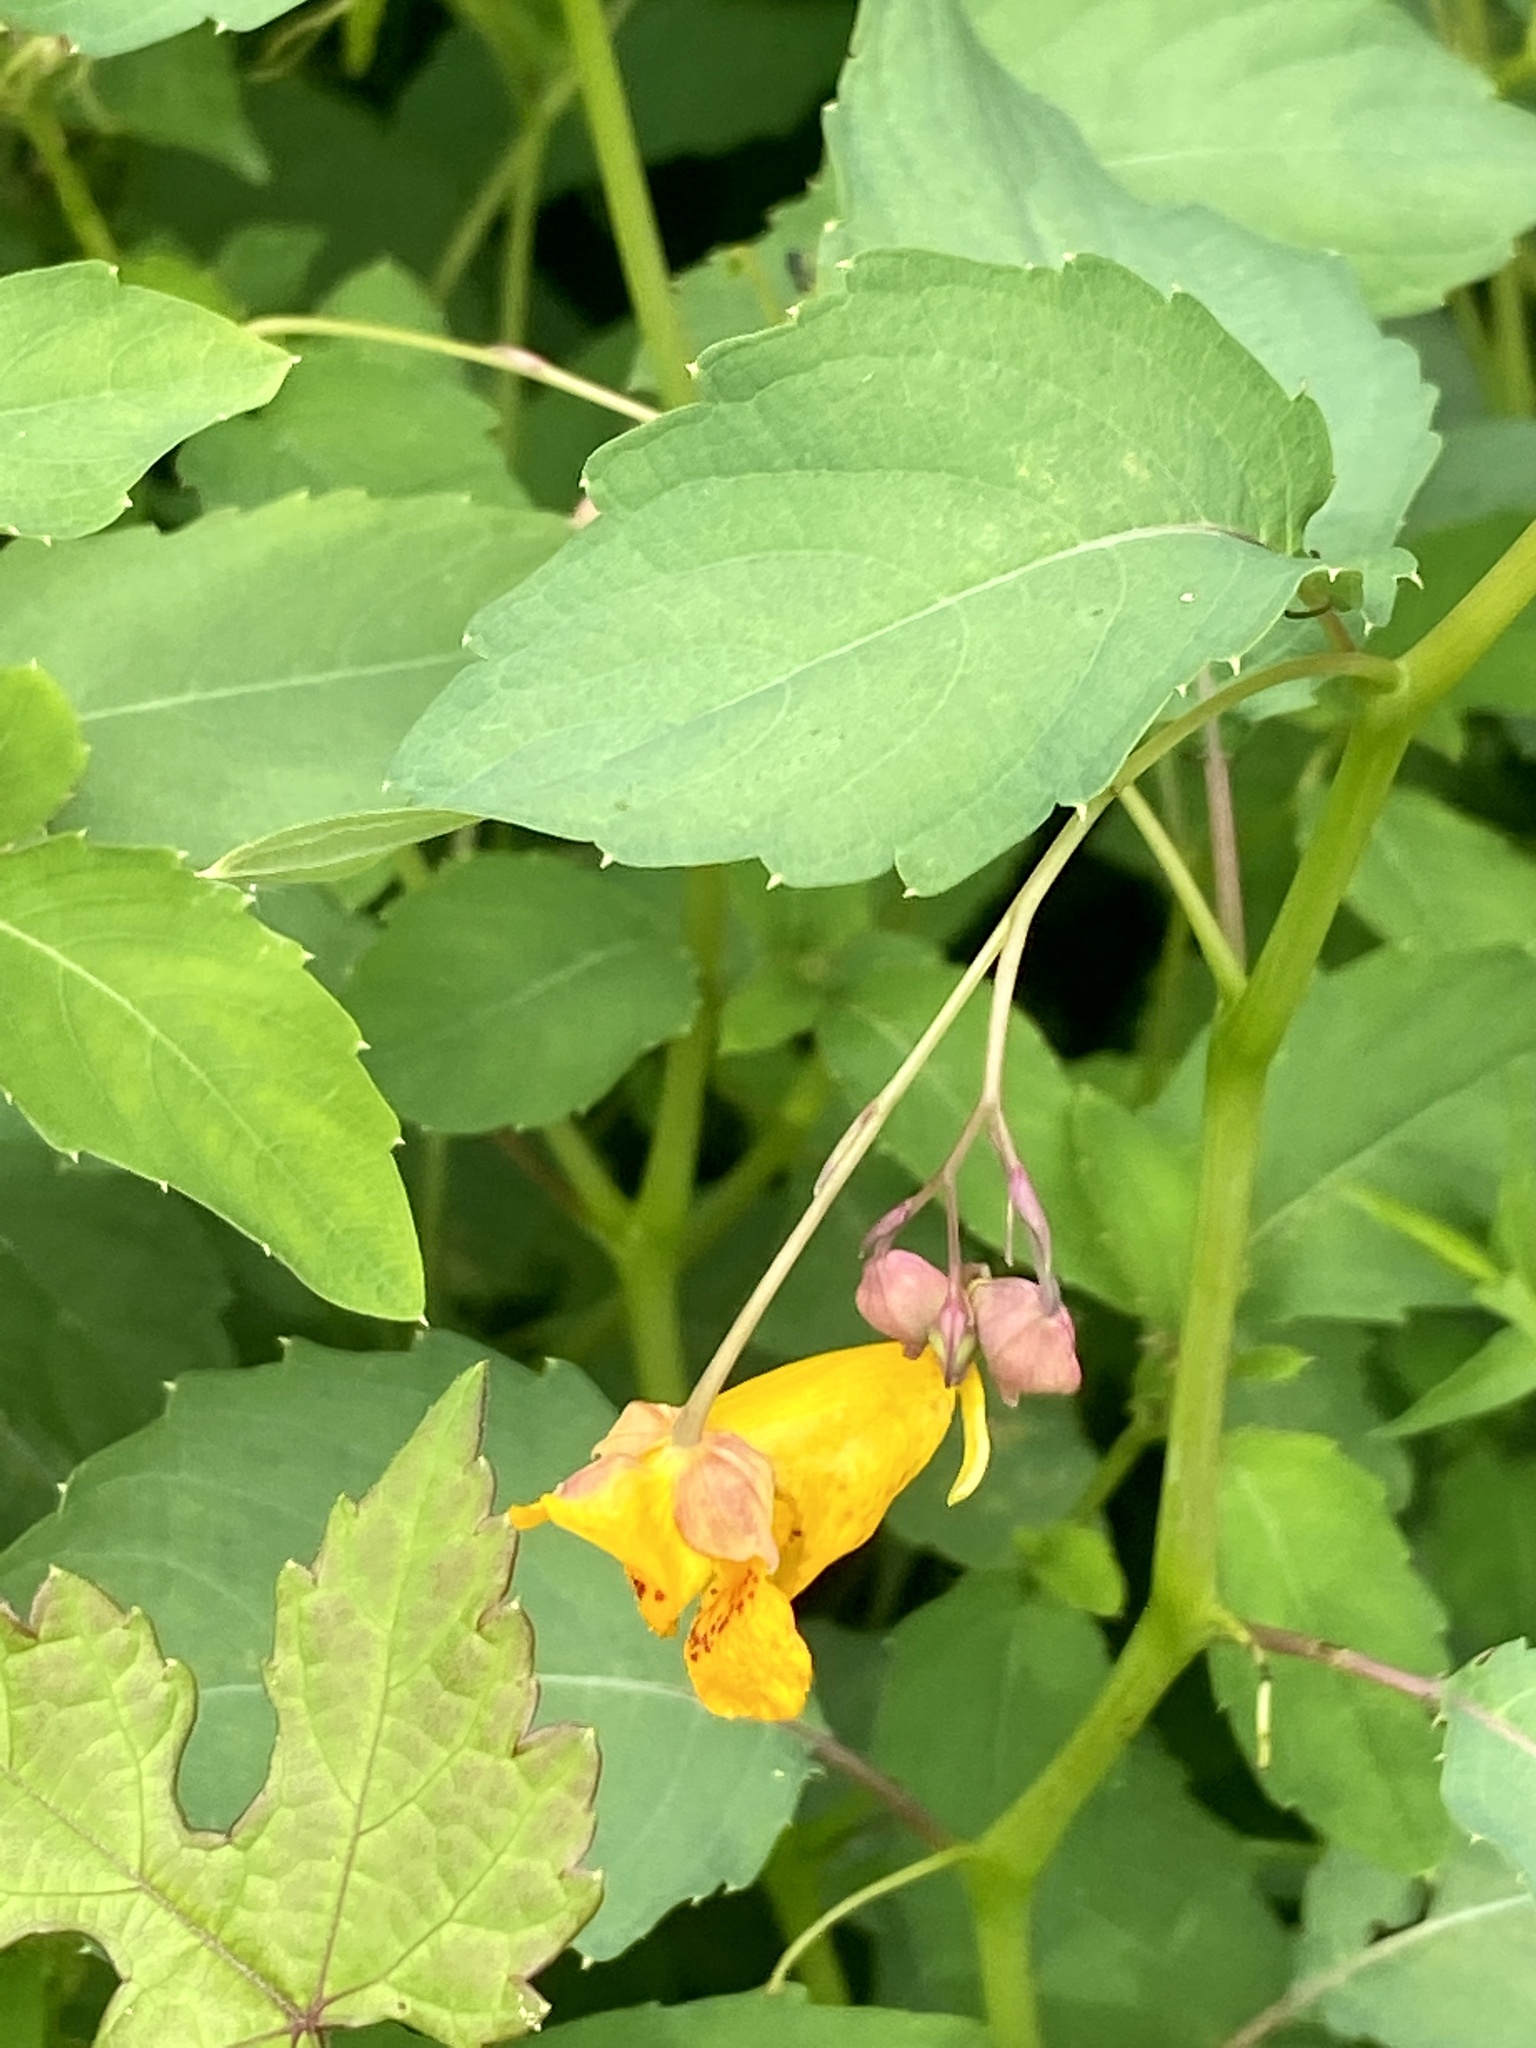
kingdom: Plantae
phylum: Tracheophyta
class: Magnoliopsida
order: Ericales
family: Balsaminaceae
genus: Impatiens
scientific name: Impatiens capensis
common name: Orange balsam
